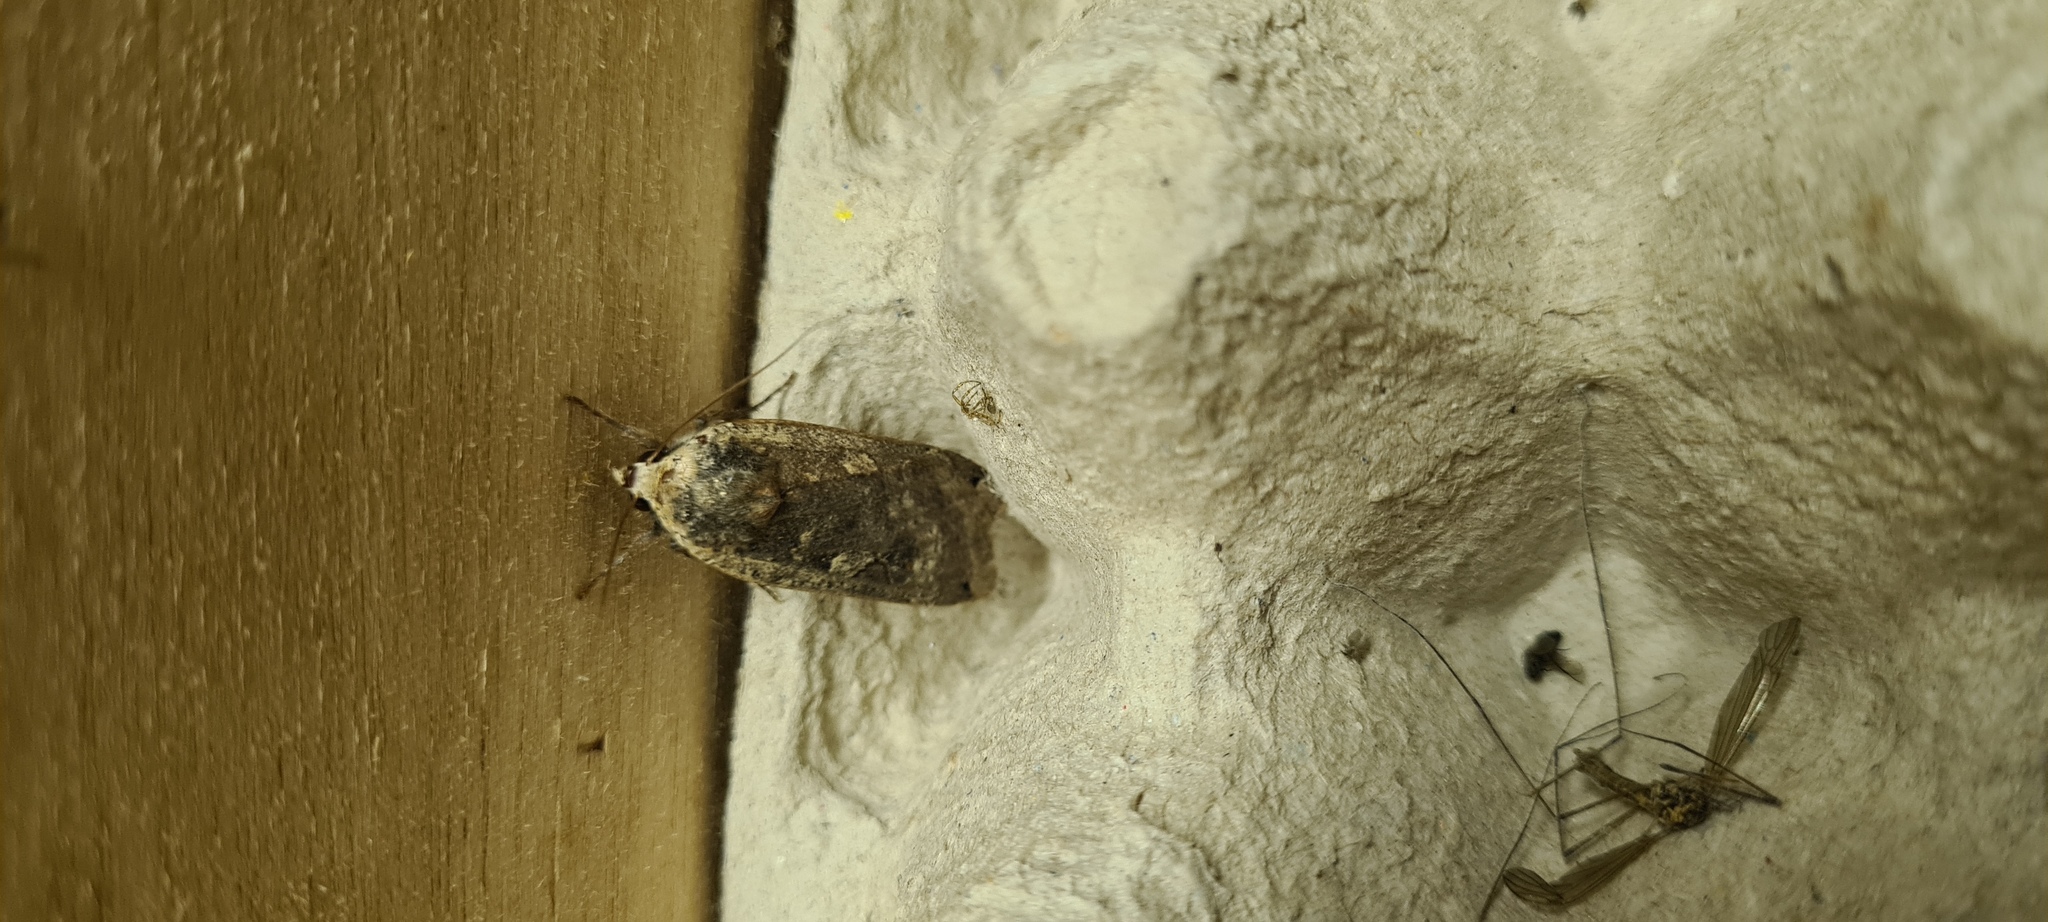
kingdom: Animalia
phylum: Arthropoda
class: Insecta
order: Lepidoptera
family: Noctuidae
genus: Noctua
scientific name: Noctua pronuba
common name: Large yellow underwing
